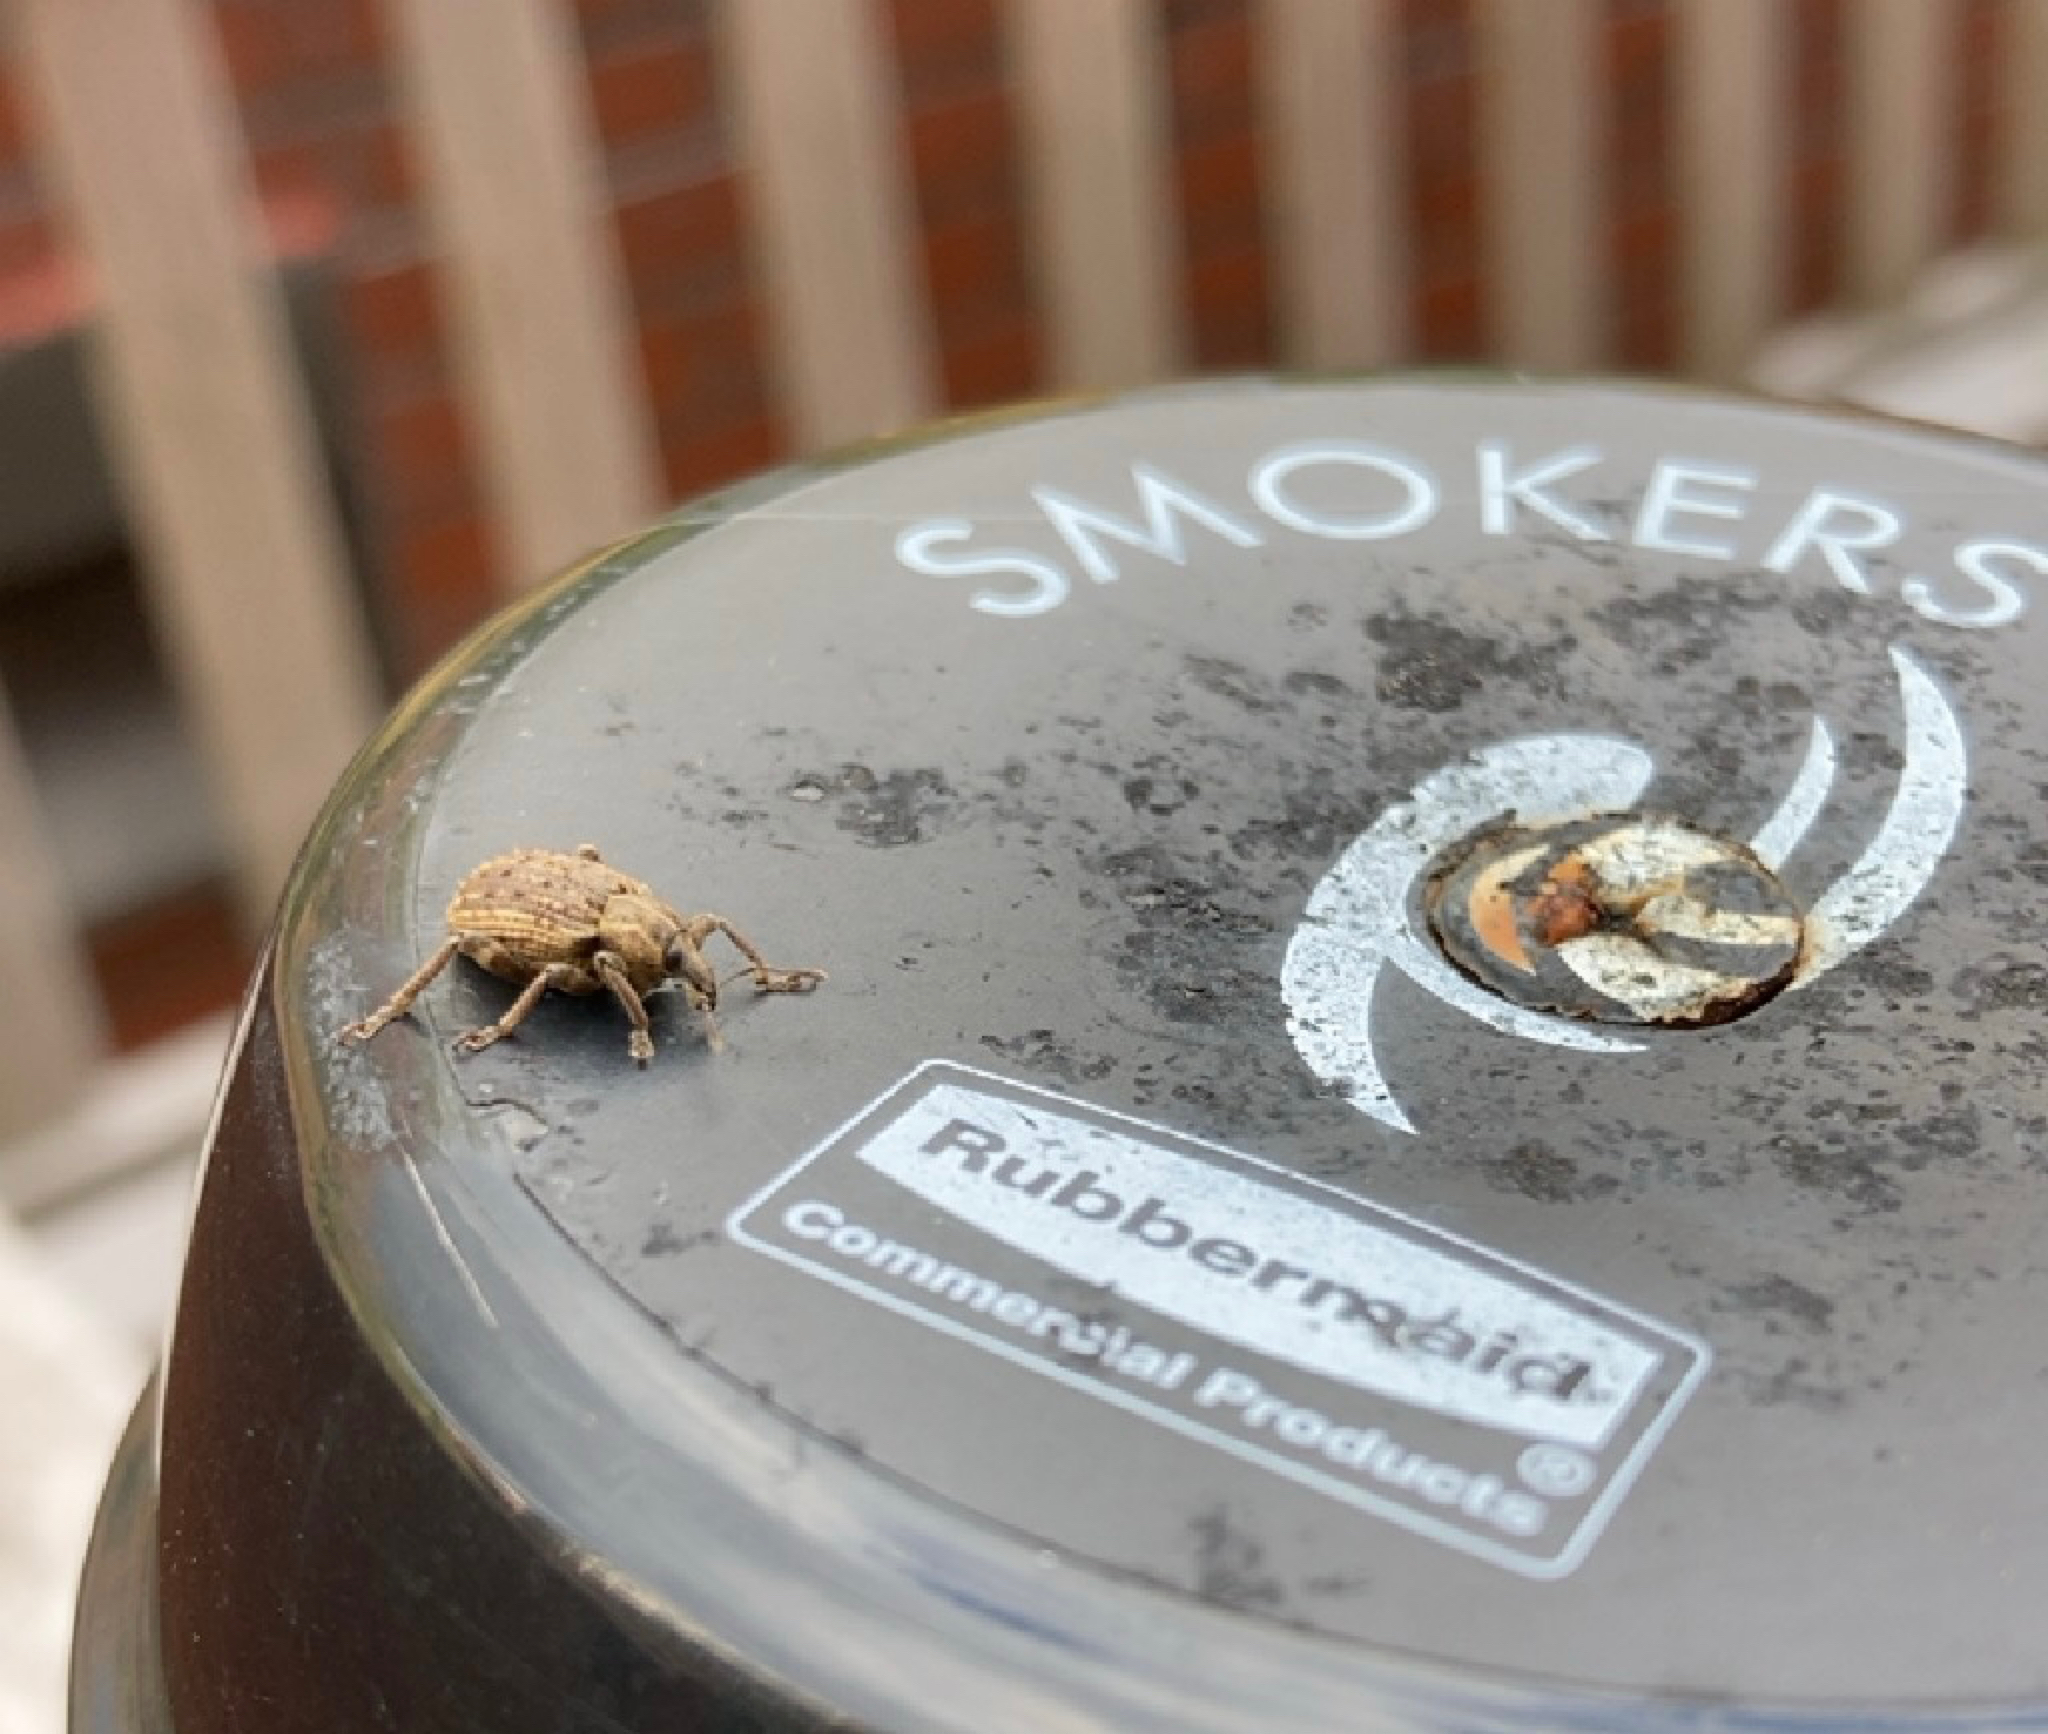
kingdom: Animalia
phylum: Arthropoda
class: Insecta
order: Coleoptera
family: Curculionidae
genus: Brachypera
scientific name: Brachypera zoilus
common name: Clover leaf weevil
